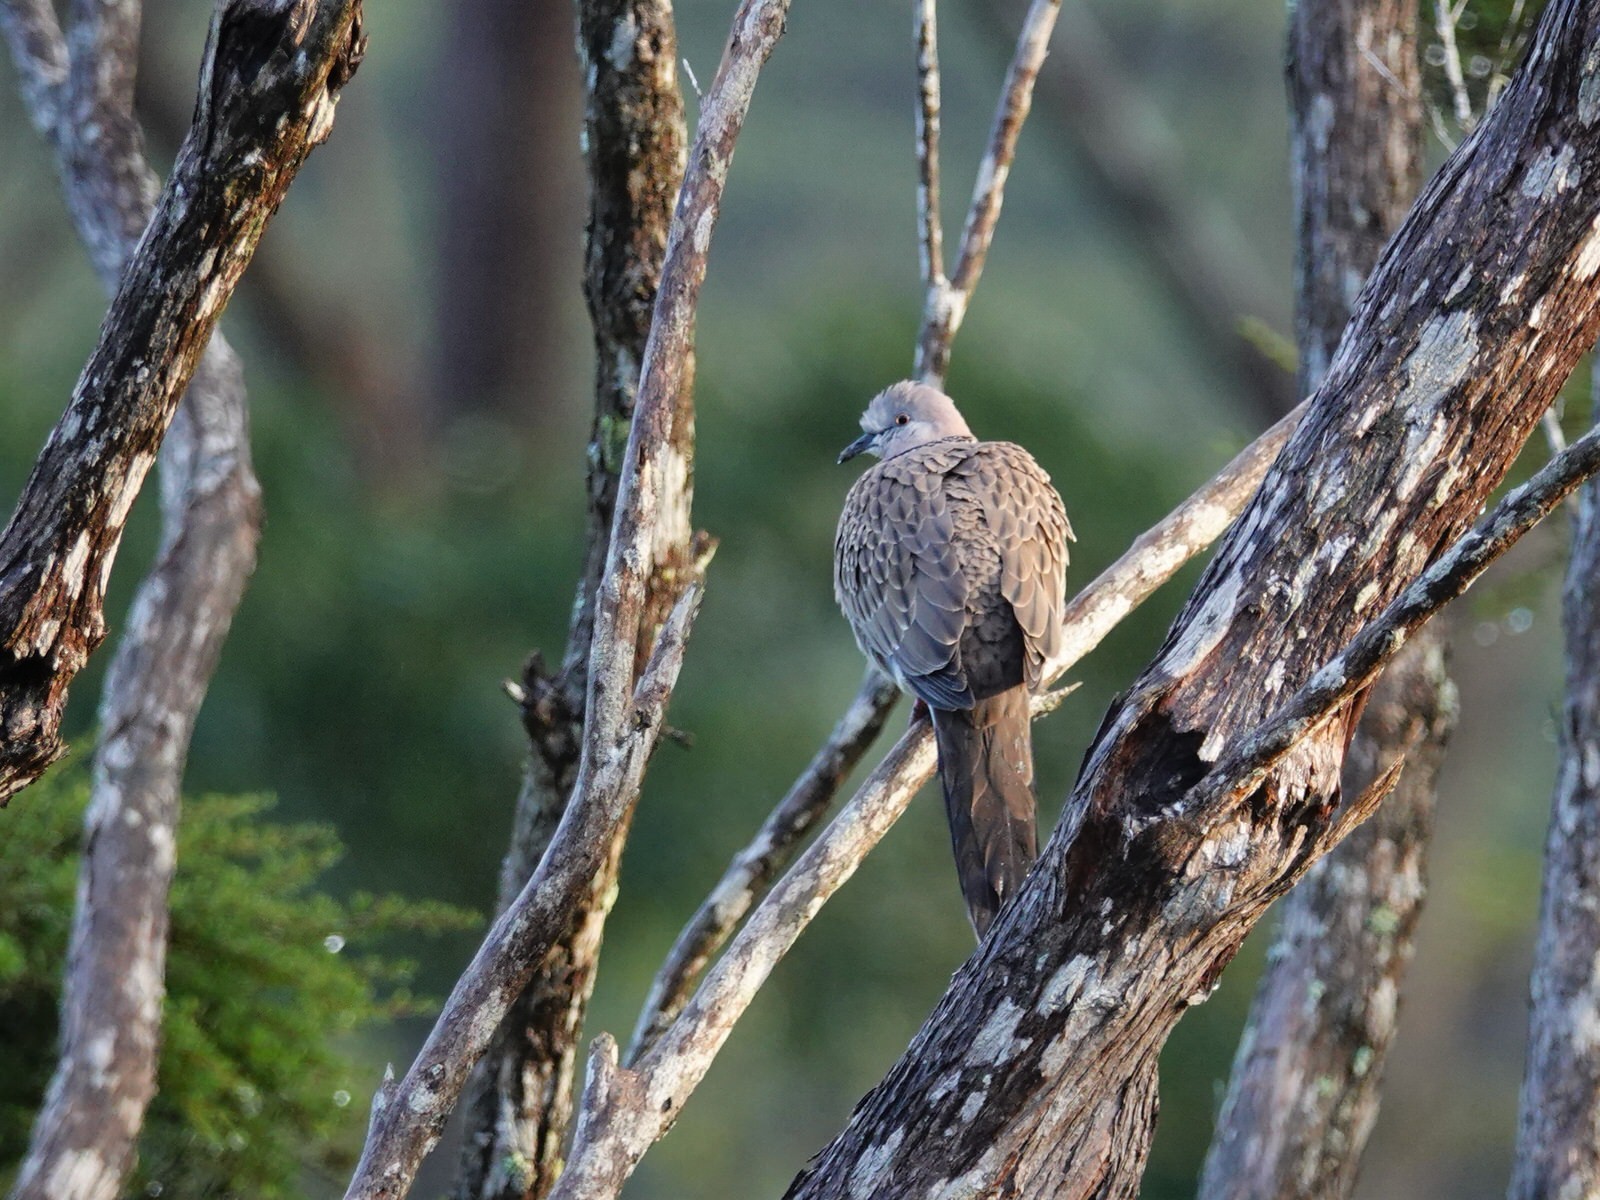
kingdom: Animalia
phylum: Chordata
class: Aves
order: Columbiformes
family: Columbidae
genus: Spilopelia
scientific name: Spilopelia chinensis
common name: Spotted dove
